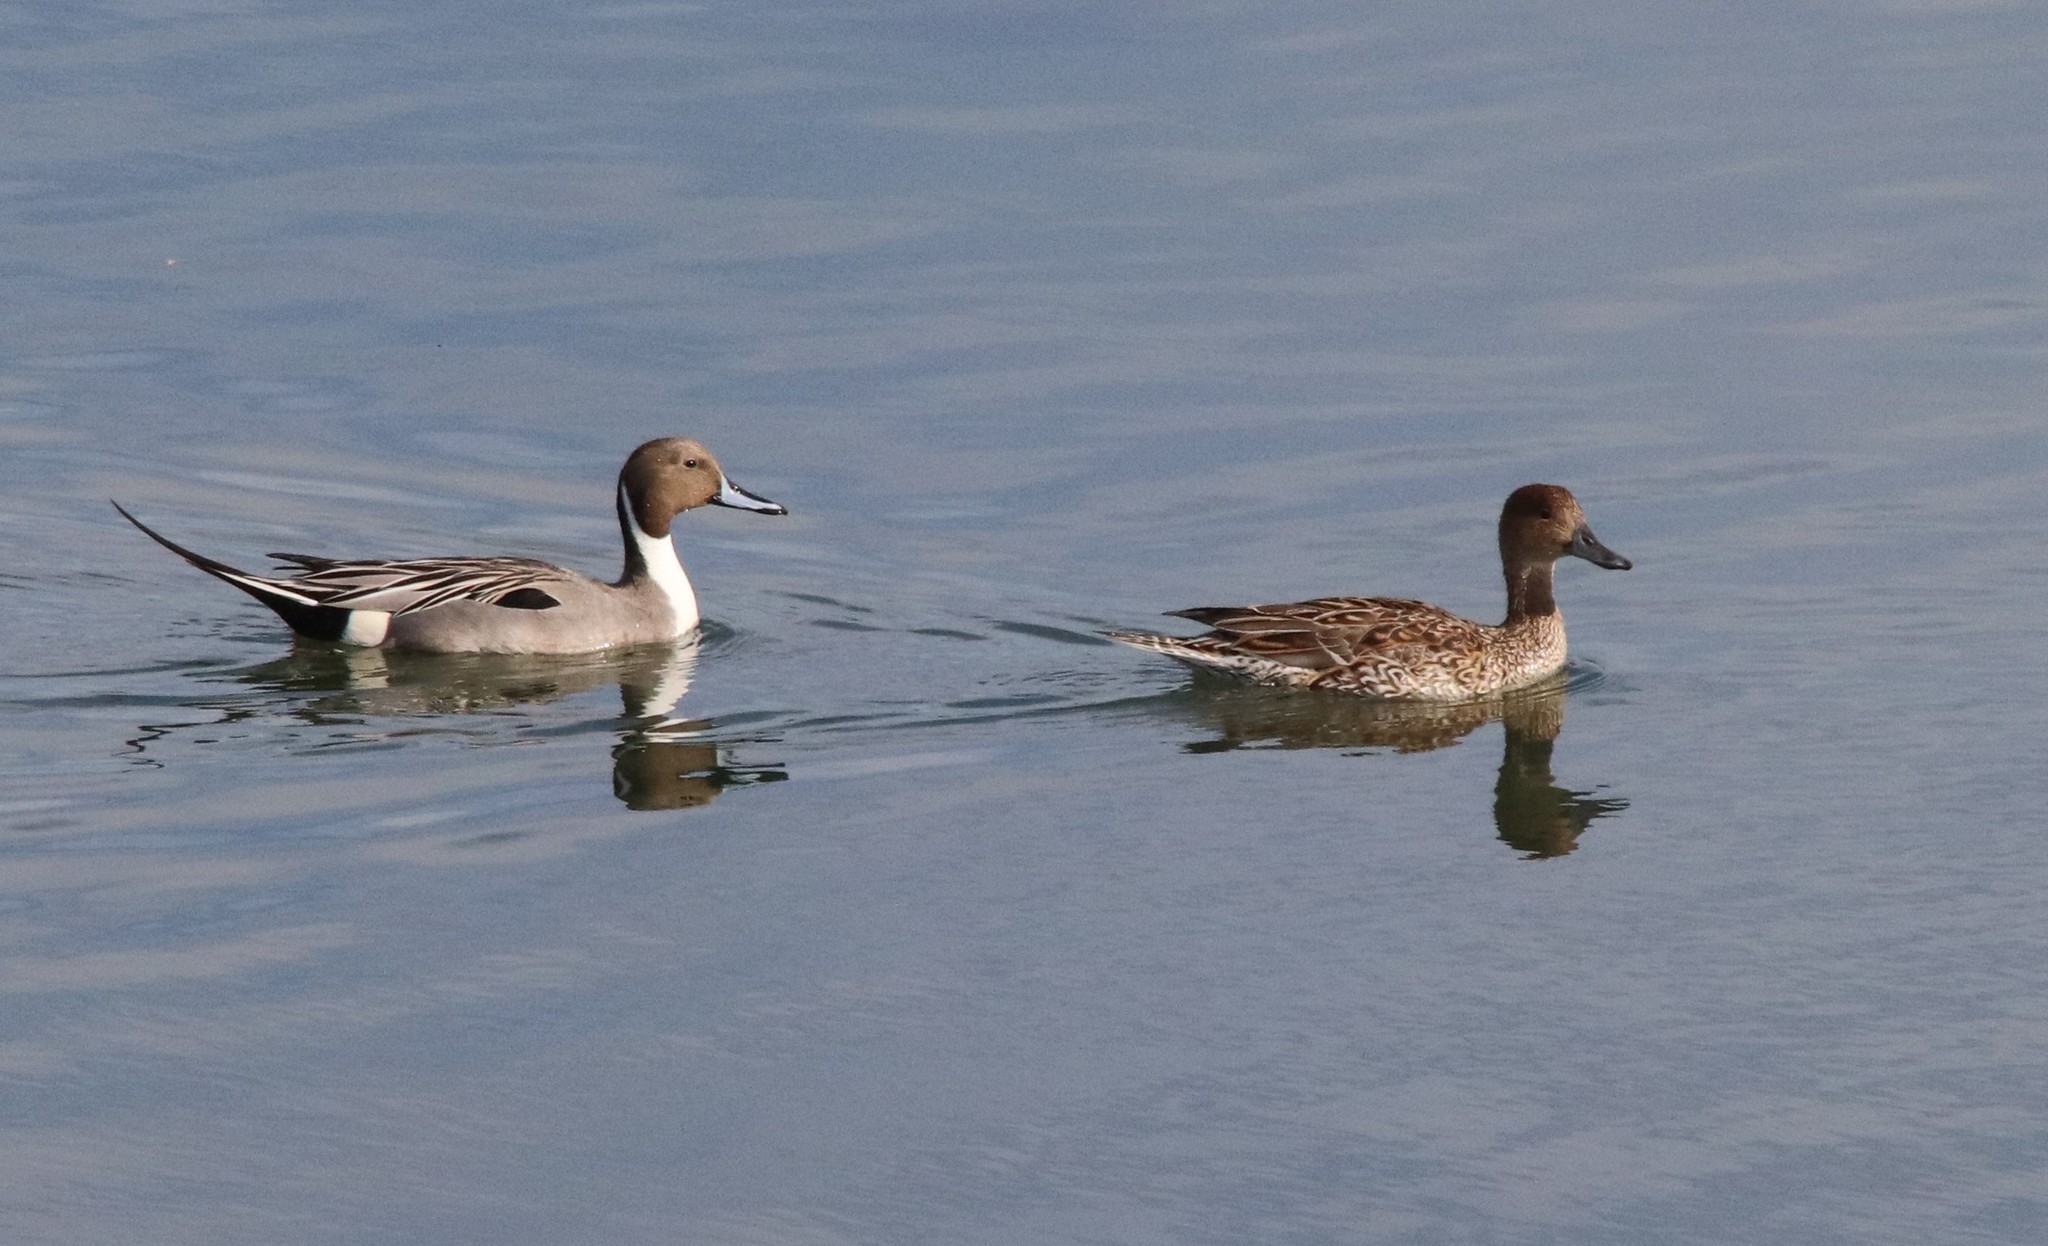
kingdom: Animalia
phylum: Chordata
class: Aves
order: Anseriformes
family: Anatidae
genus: Anas
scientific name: Anas acuta
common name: Northern pintail
